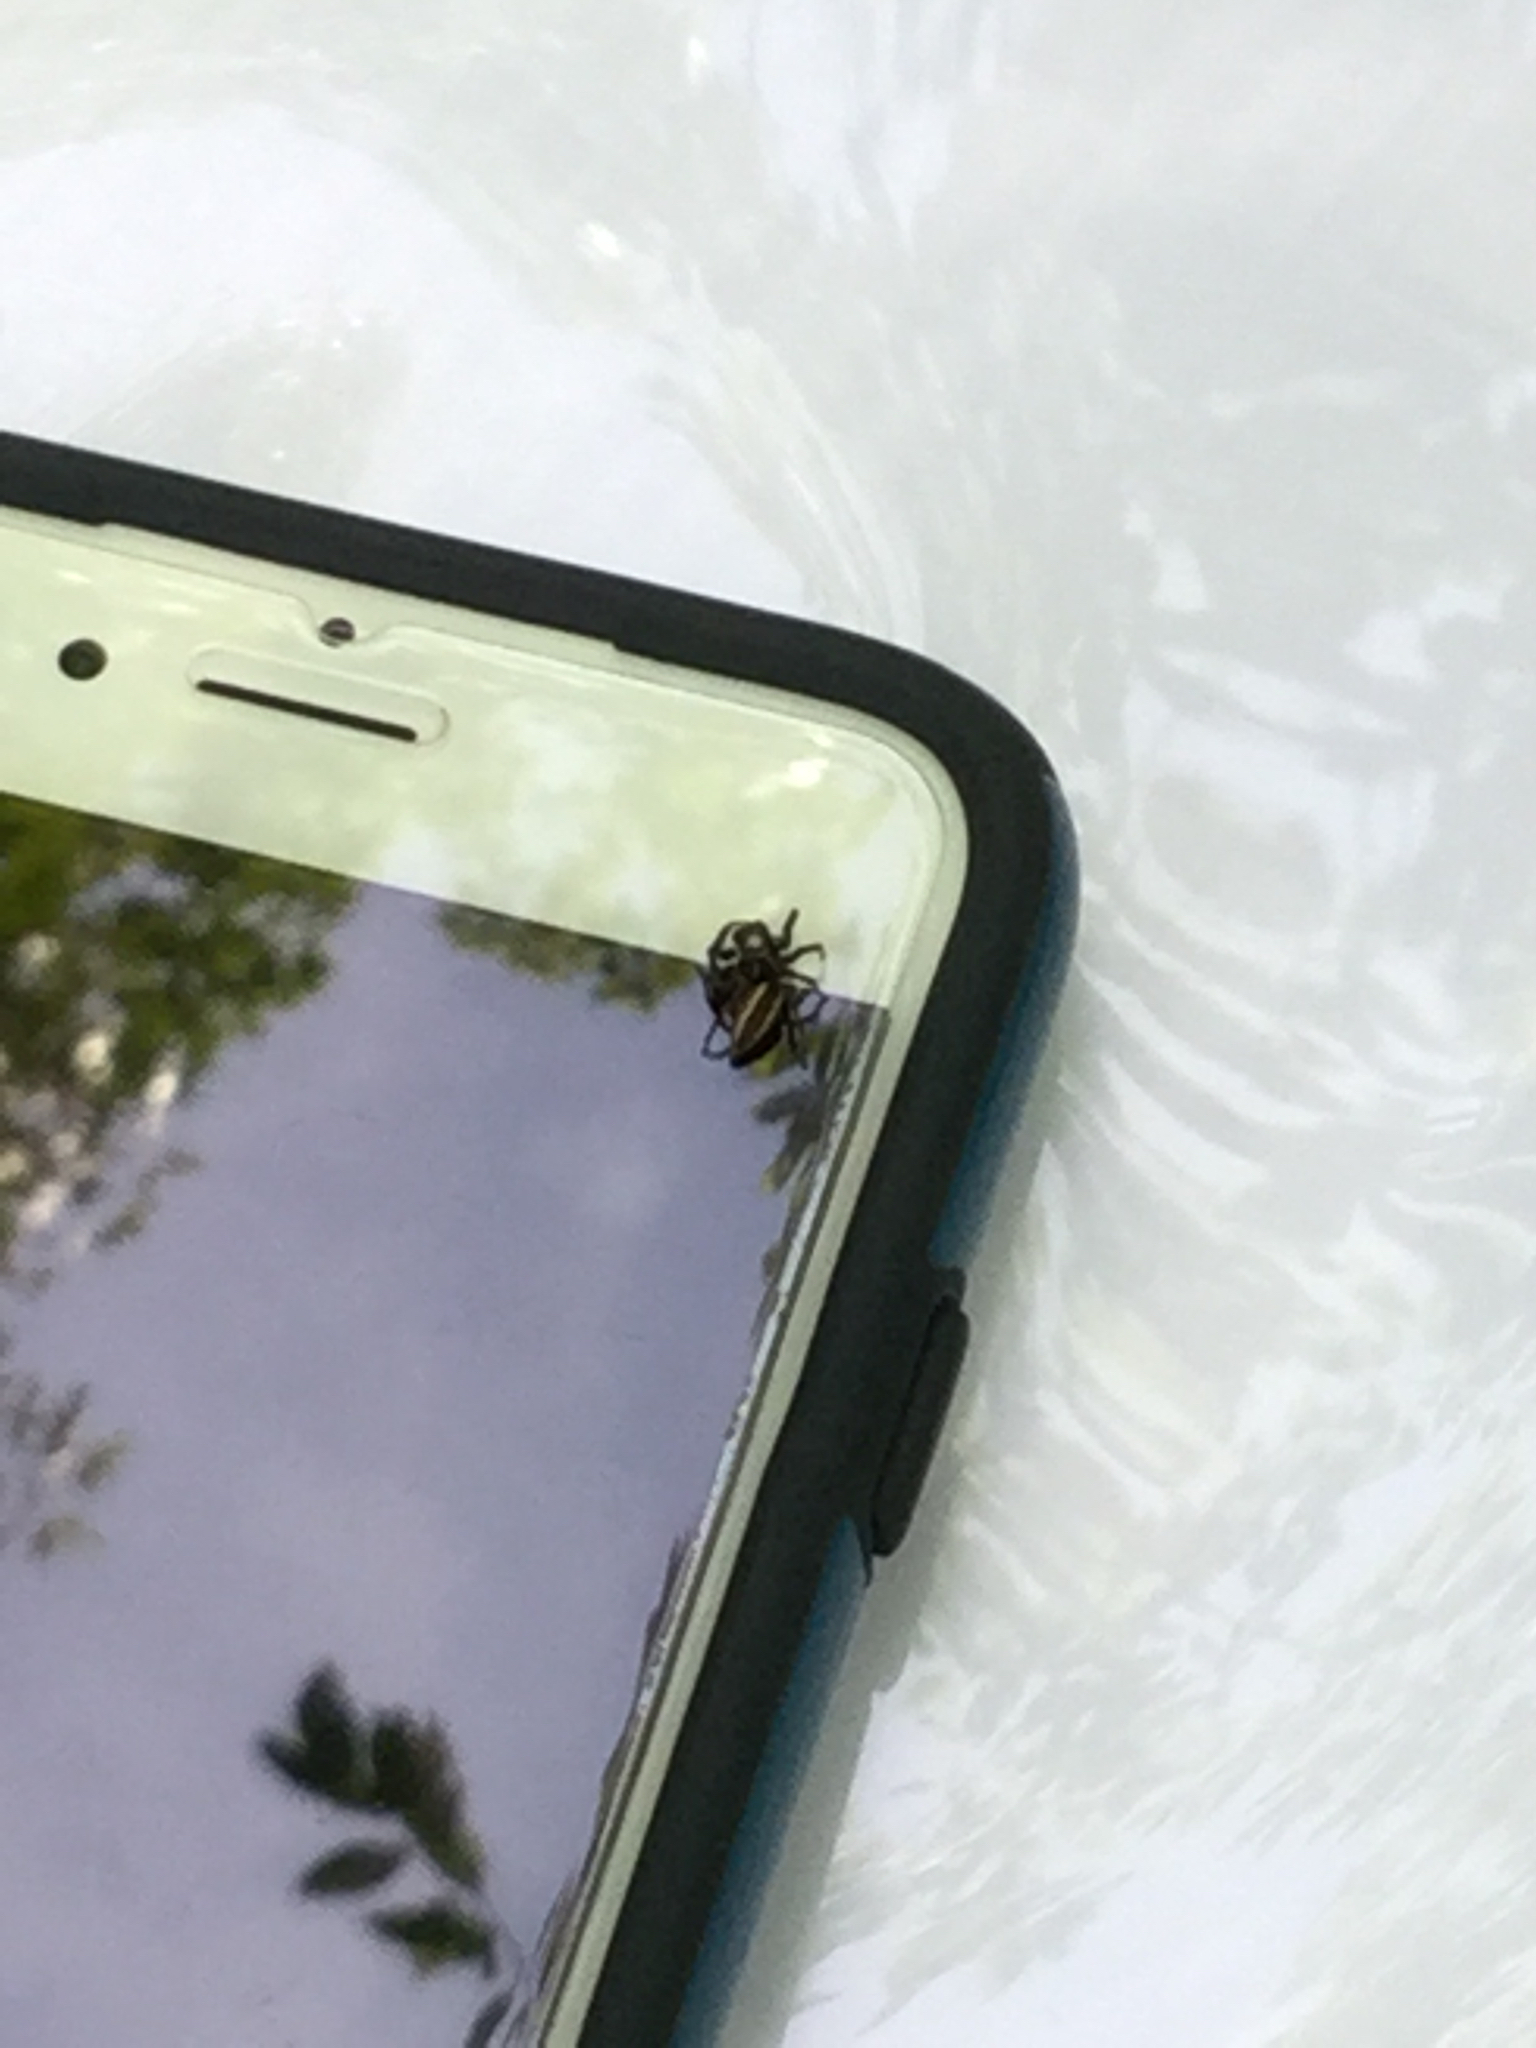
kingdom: Animalia
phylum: Arthropoda
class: Arachnida
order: Araneae
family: Salticidae
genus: Colonus
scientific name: Colonus sylvanus
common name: Jumping spiders
